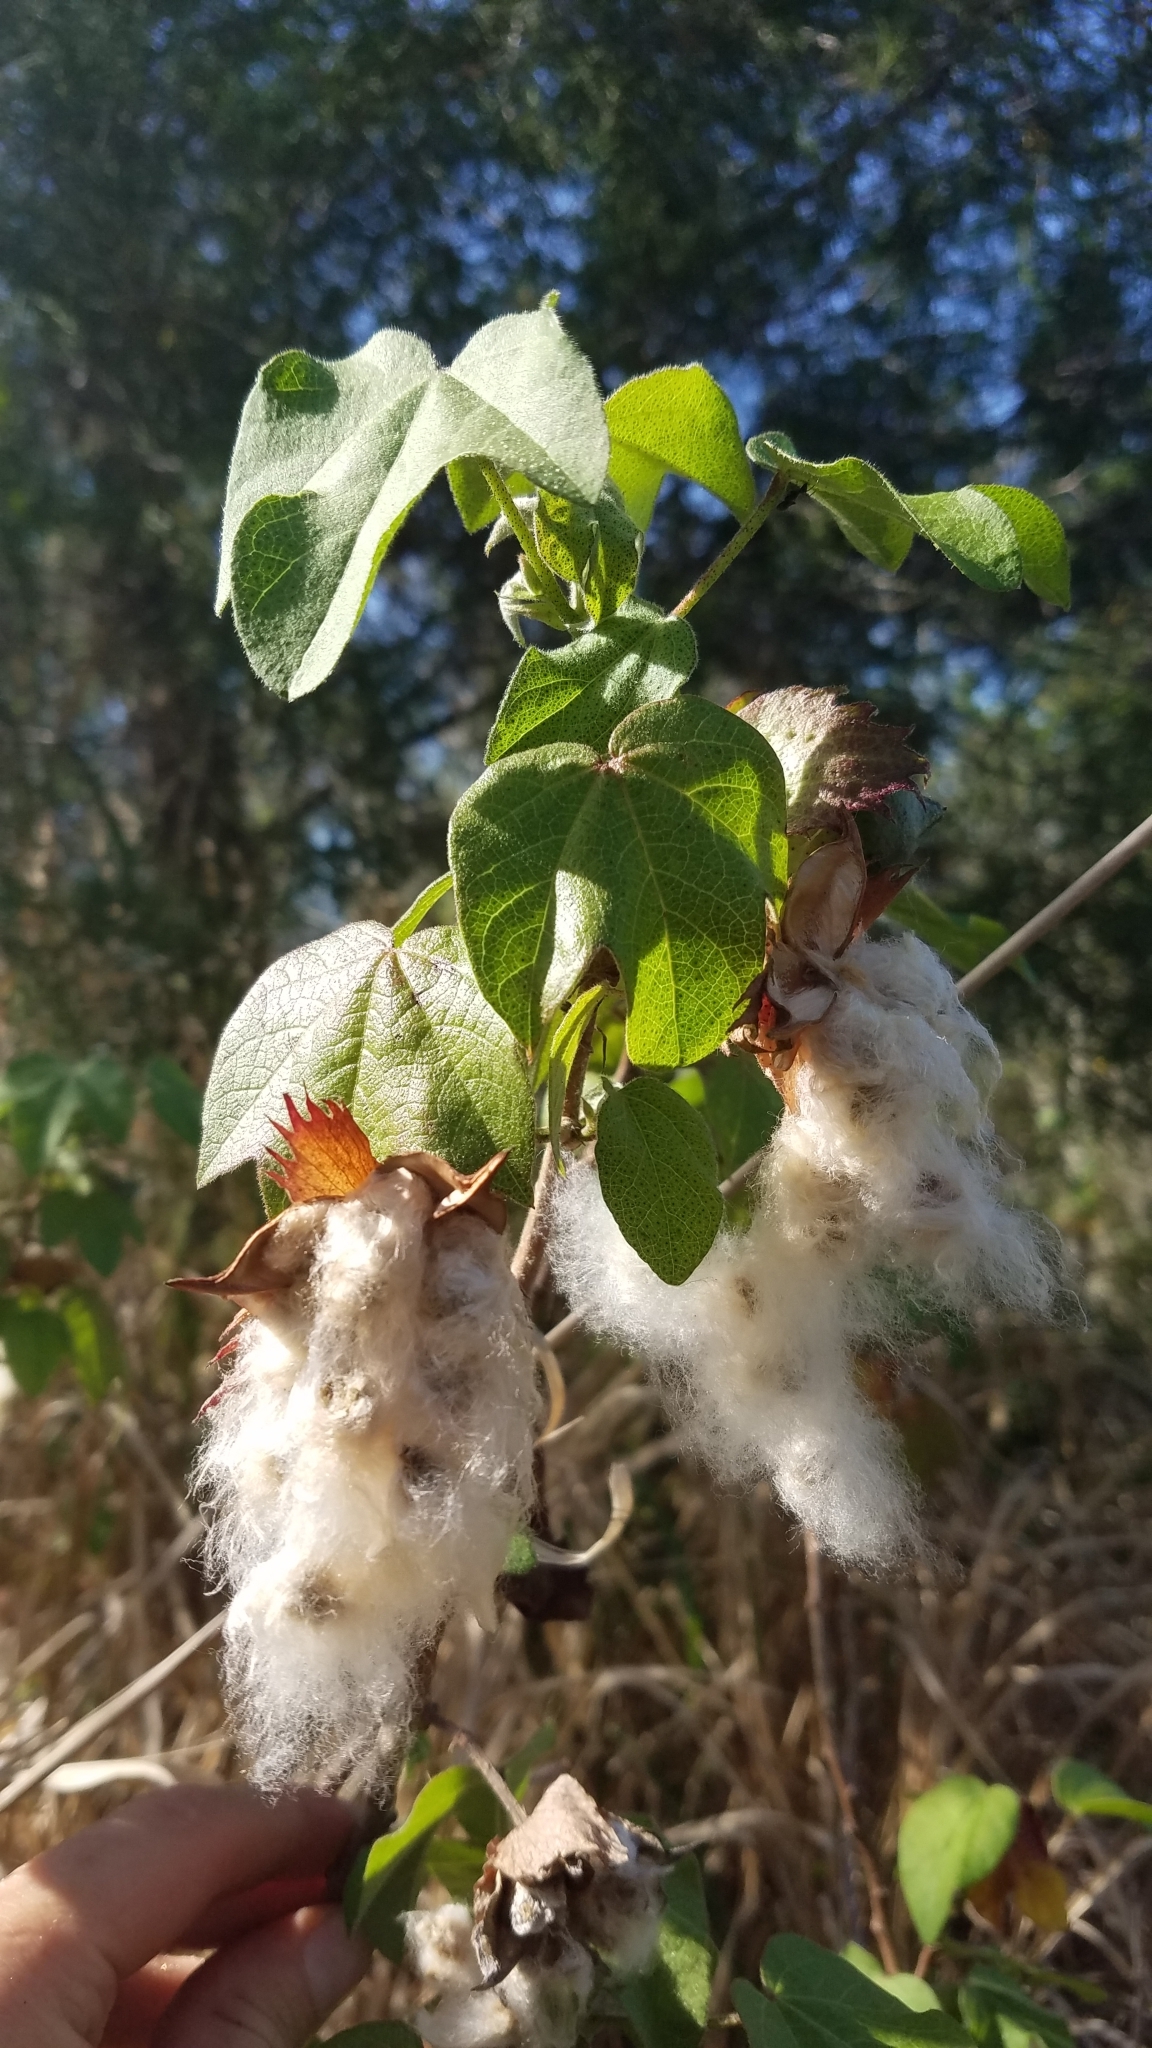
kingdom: Plantae
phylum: Tracheophyta
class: Magnoliopsida
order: Malvales
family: Malvaceae
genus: Gossypium
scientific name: Gossypium hirsutum
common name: Cotton
